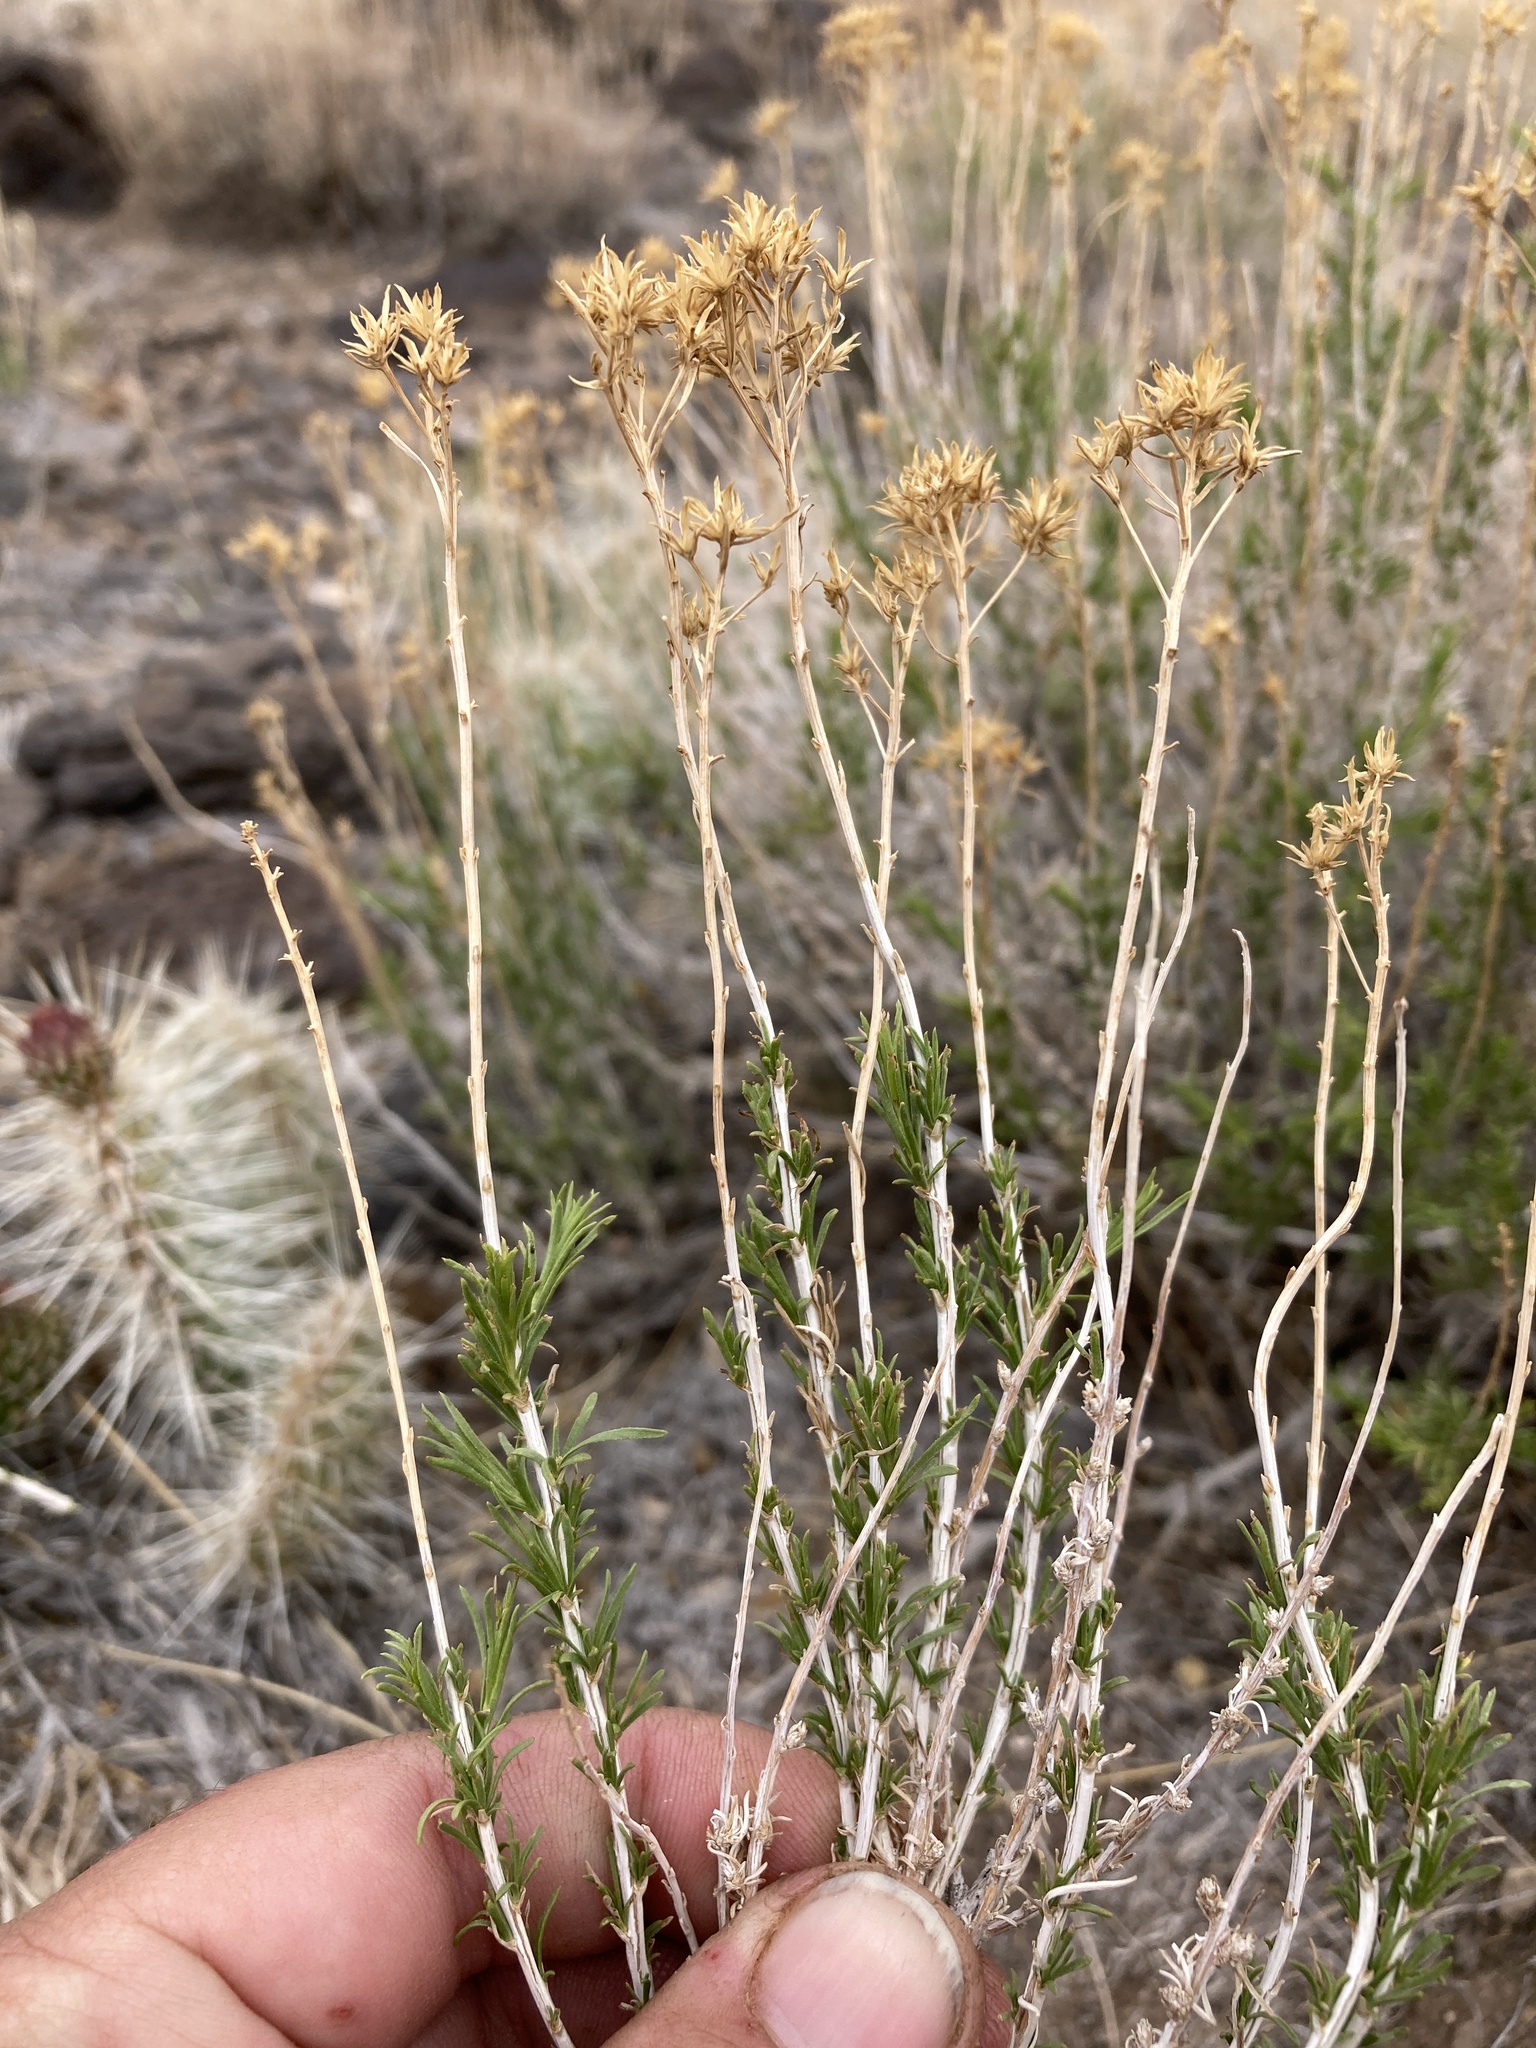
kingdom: Plantae
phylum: Tracheophyta
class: Magnoliopsida
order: Asterales
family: Asteraceae
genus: Chrysothamnus
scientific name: Chrysothamnus greenei
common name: Greene's rabbitbrush
